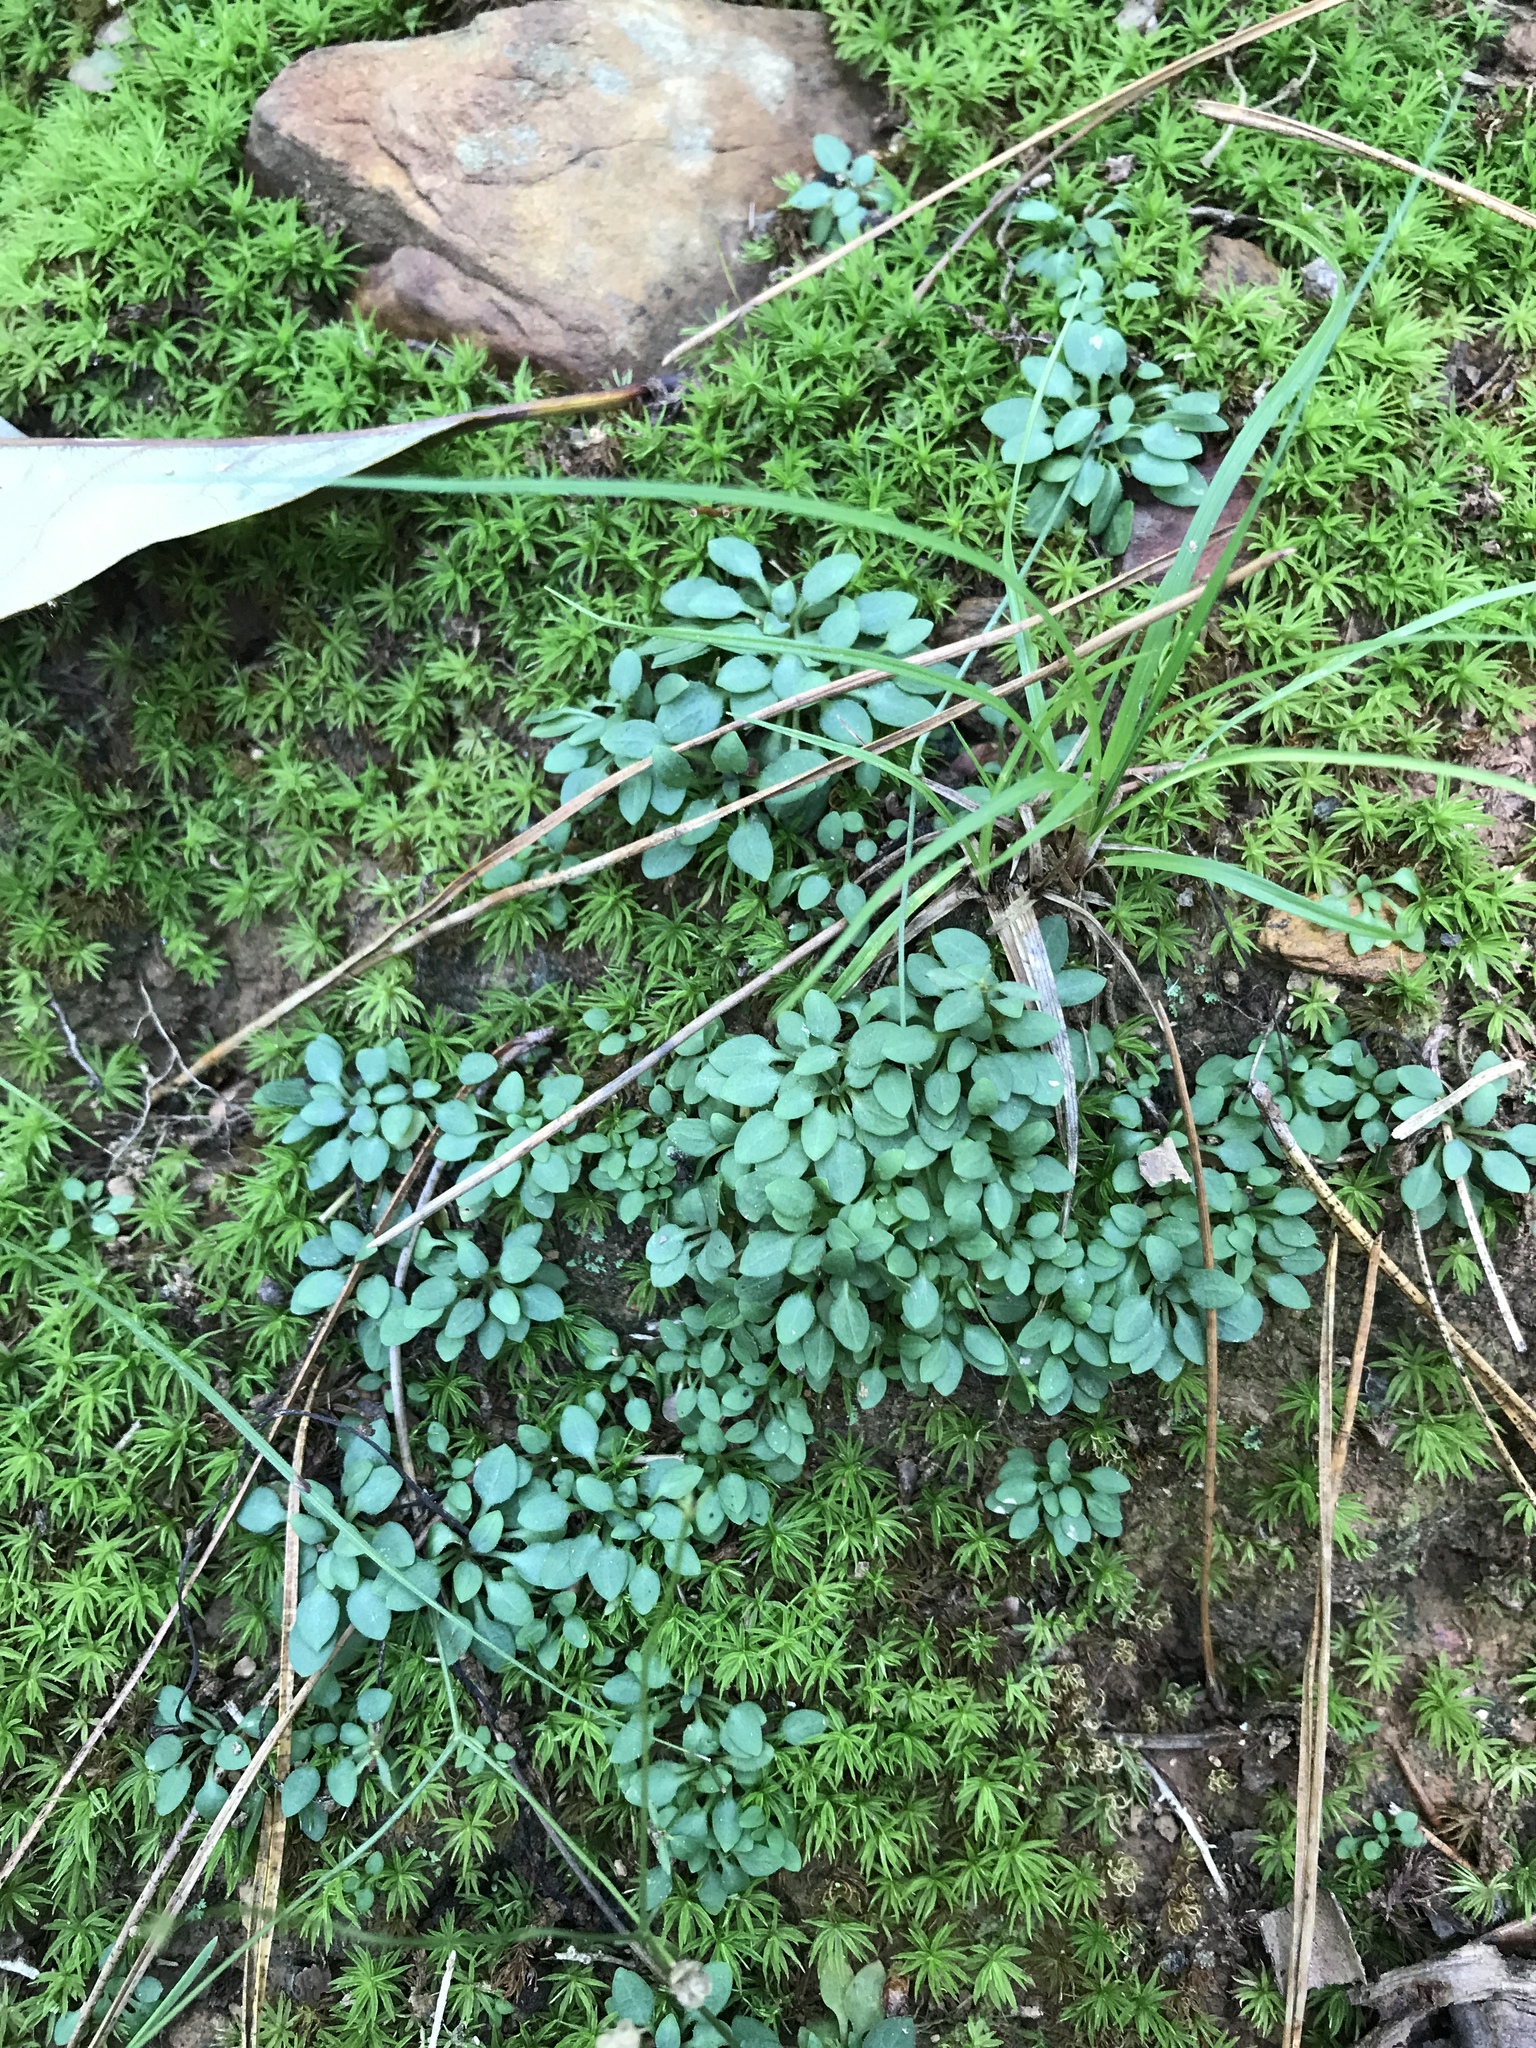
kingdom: Plantae
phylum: Tracheophyta
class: Magnoliopsida
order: Gentianales
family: Rubiaceae
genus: Houstonia
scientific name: Houstonia caerulea
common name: Bluets
